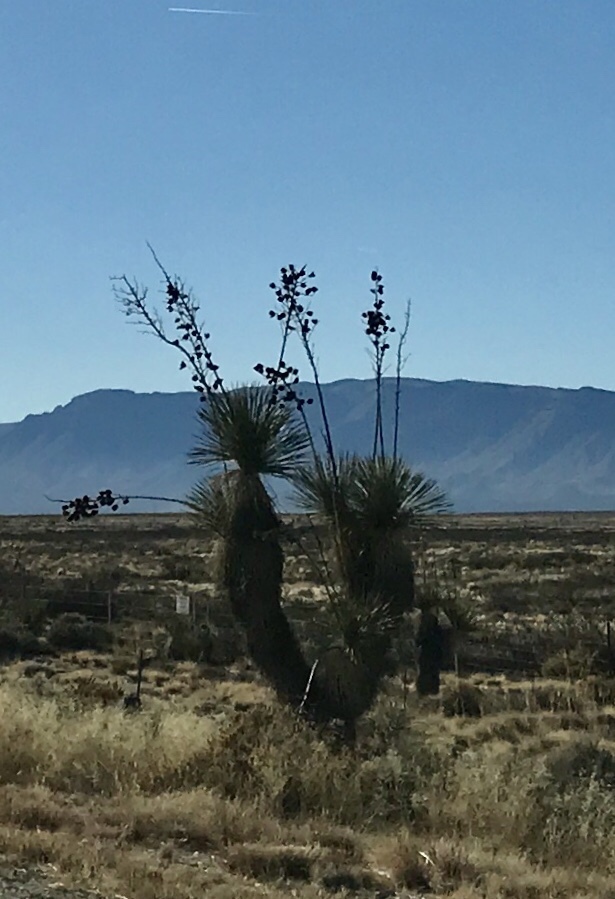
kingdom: Plantae
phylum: Tracheophyta
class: Liliopsida
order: Asparagales
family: Asparagaceae
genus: Yucca
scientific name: Yucca elata
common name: Palmella
